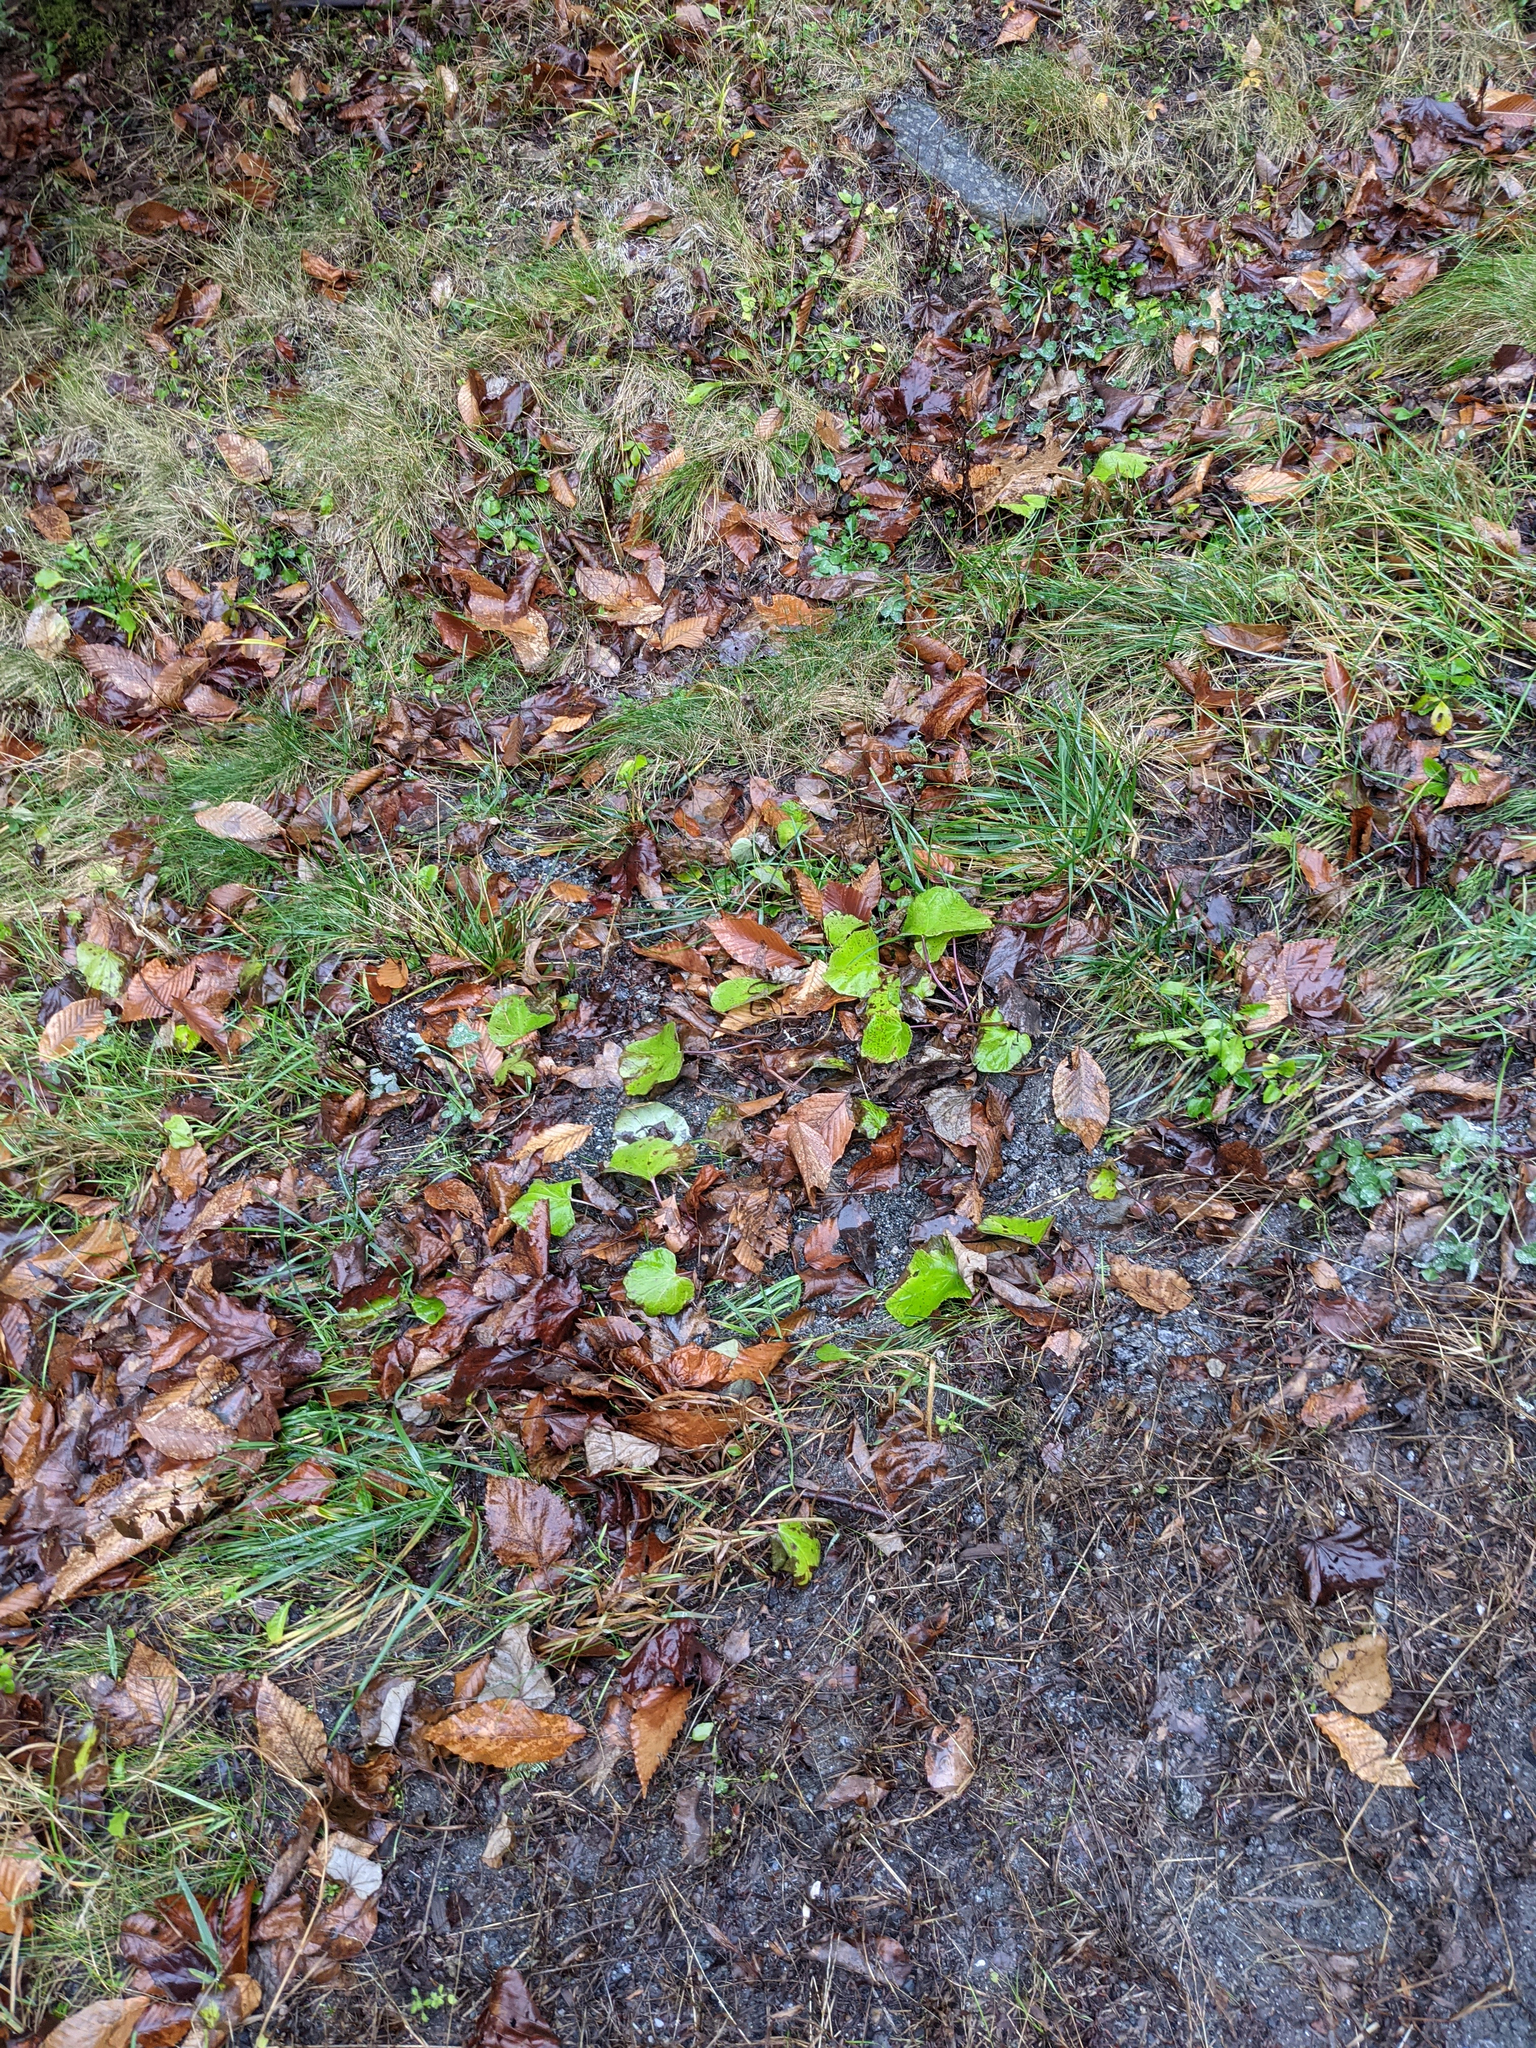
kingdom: Plantae
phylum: Tracheophyta
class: Magnoliopsida
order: Asterales
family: Asteraceae
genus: Tussilago
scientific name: Tussilago farfara
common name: Coltsfoot
